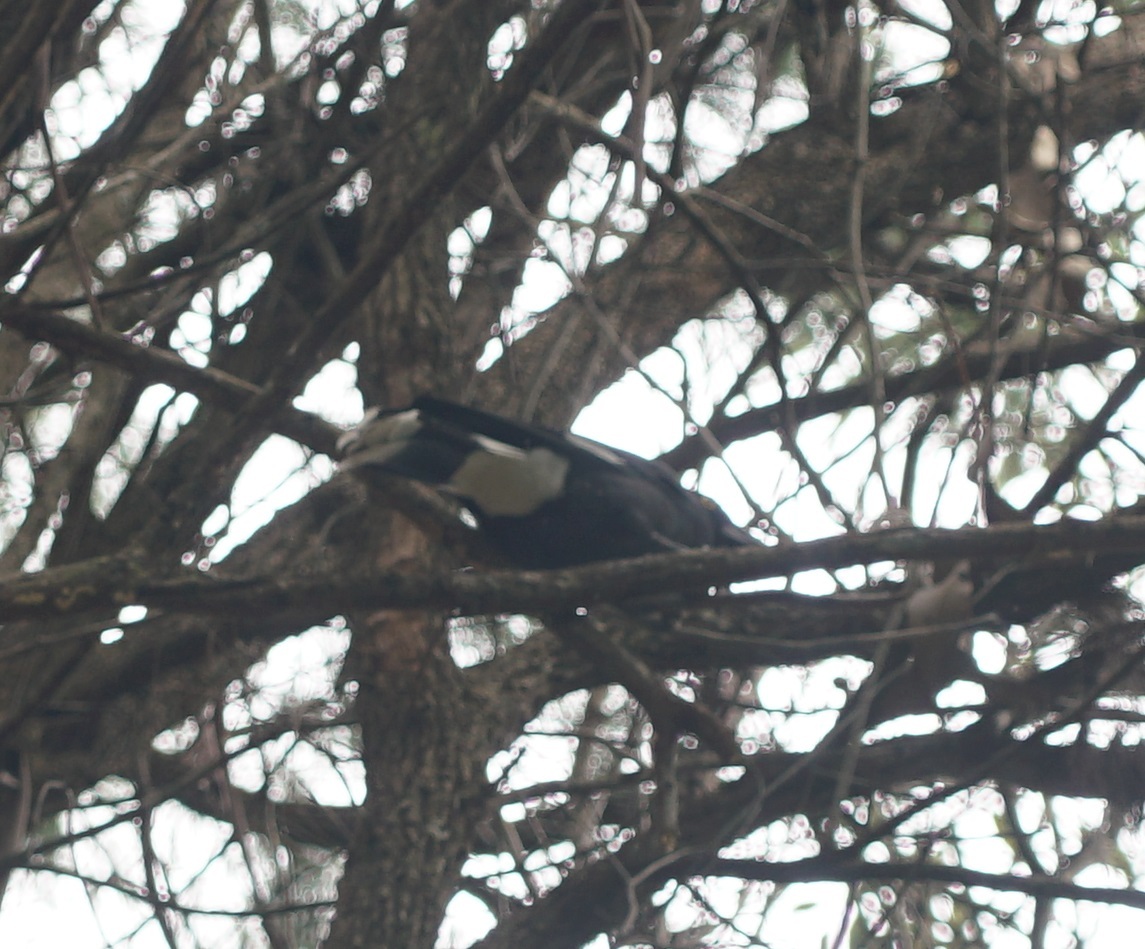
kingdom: Animalia
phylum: Chordata
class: Aves
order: Passeriformes
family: Cracticidae
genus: Strepera
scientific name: Strepera graculina
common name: Pied currawong
